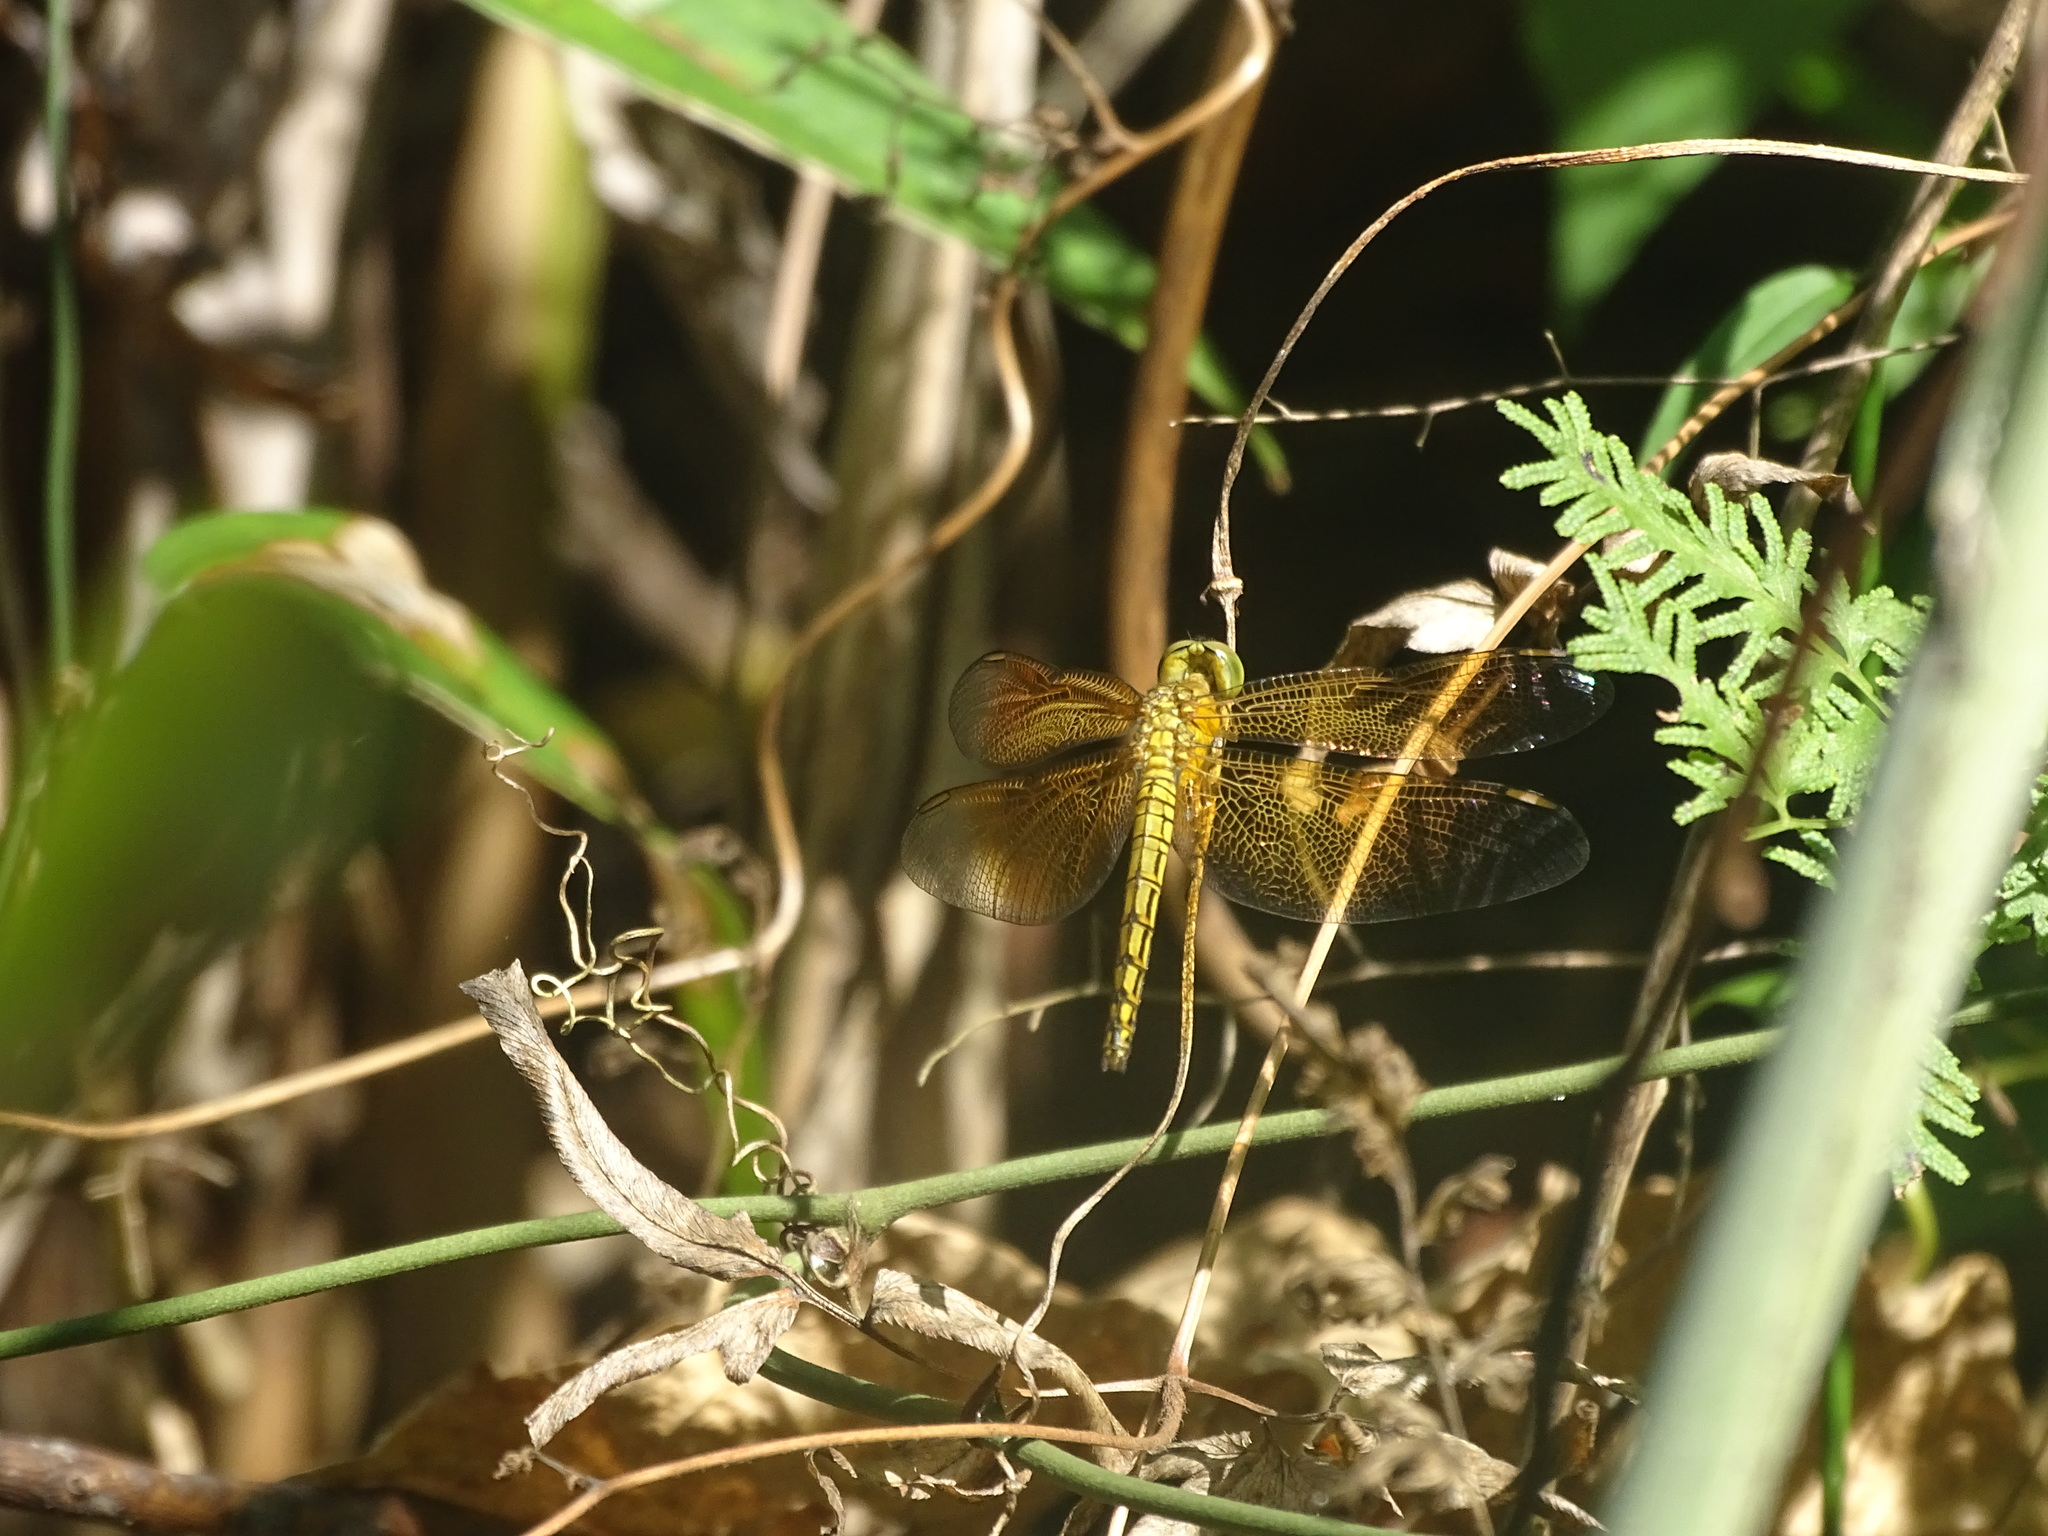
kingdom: Animalia
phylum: Arthropoda
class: Insecta
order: Odonata
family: Libellulidae
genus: Neurothemis
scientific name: Neurothemis taiwanensis
